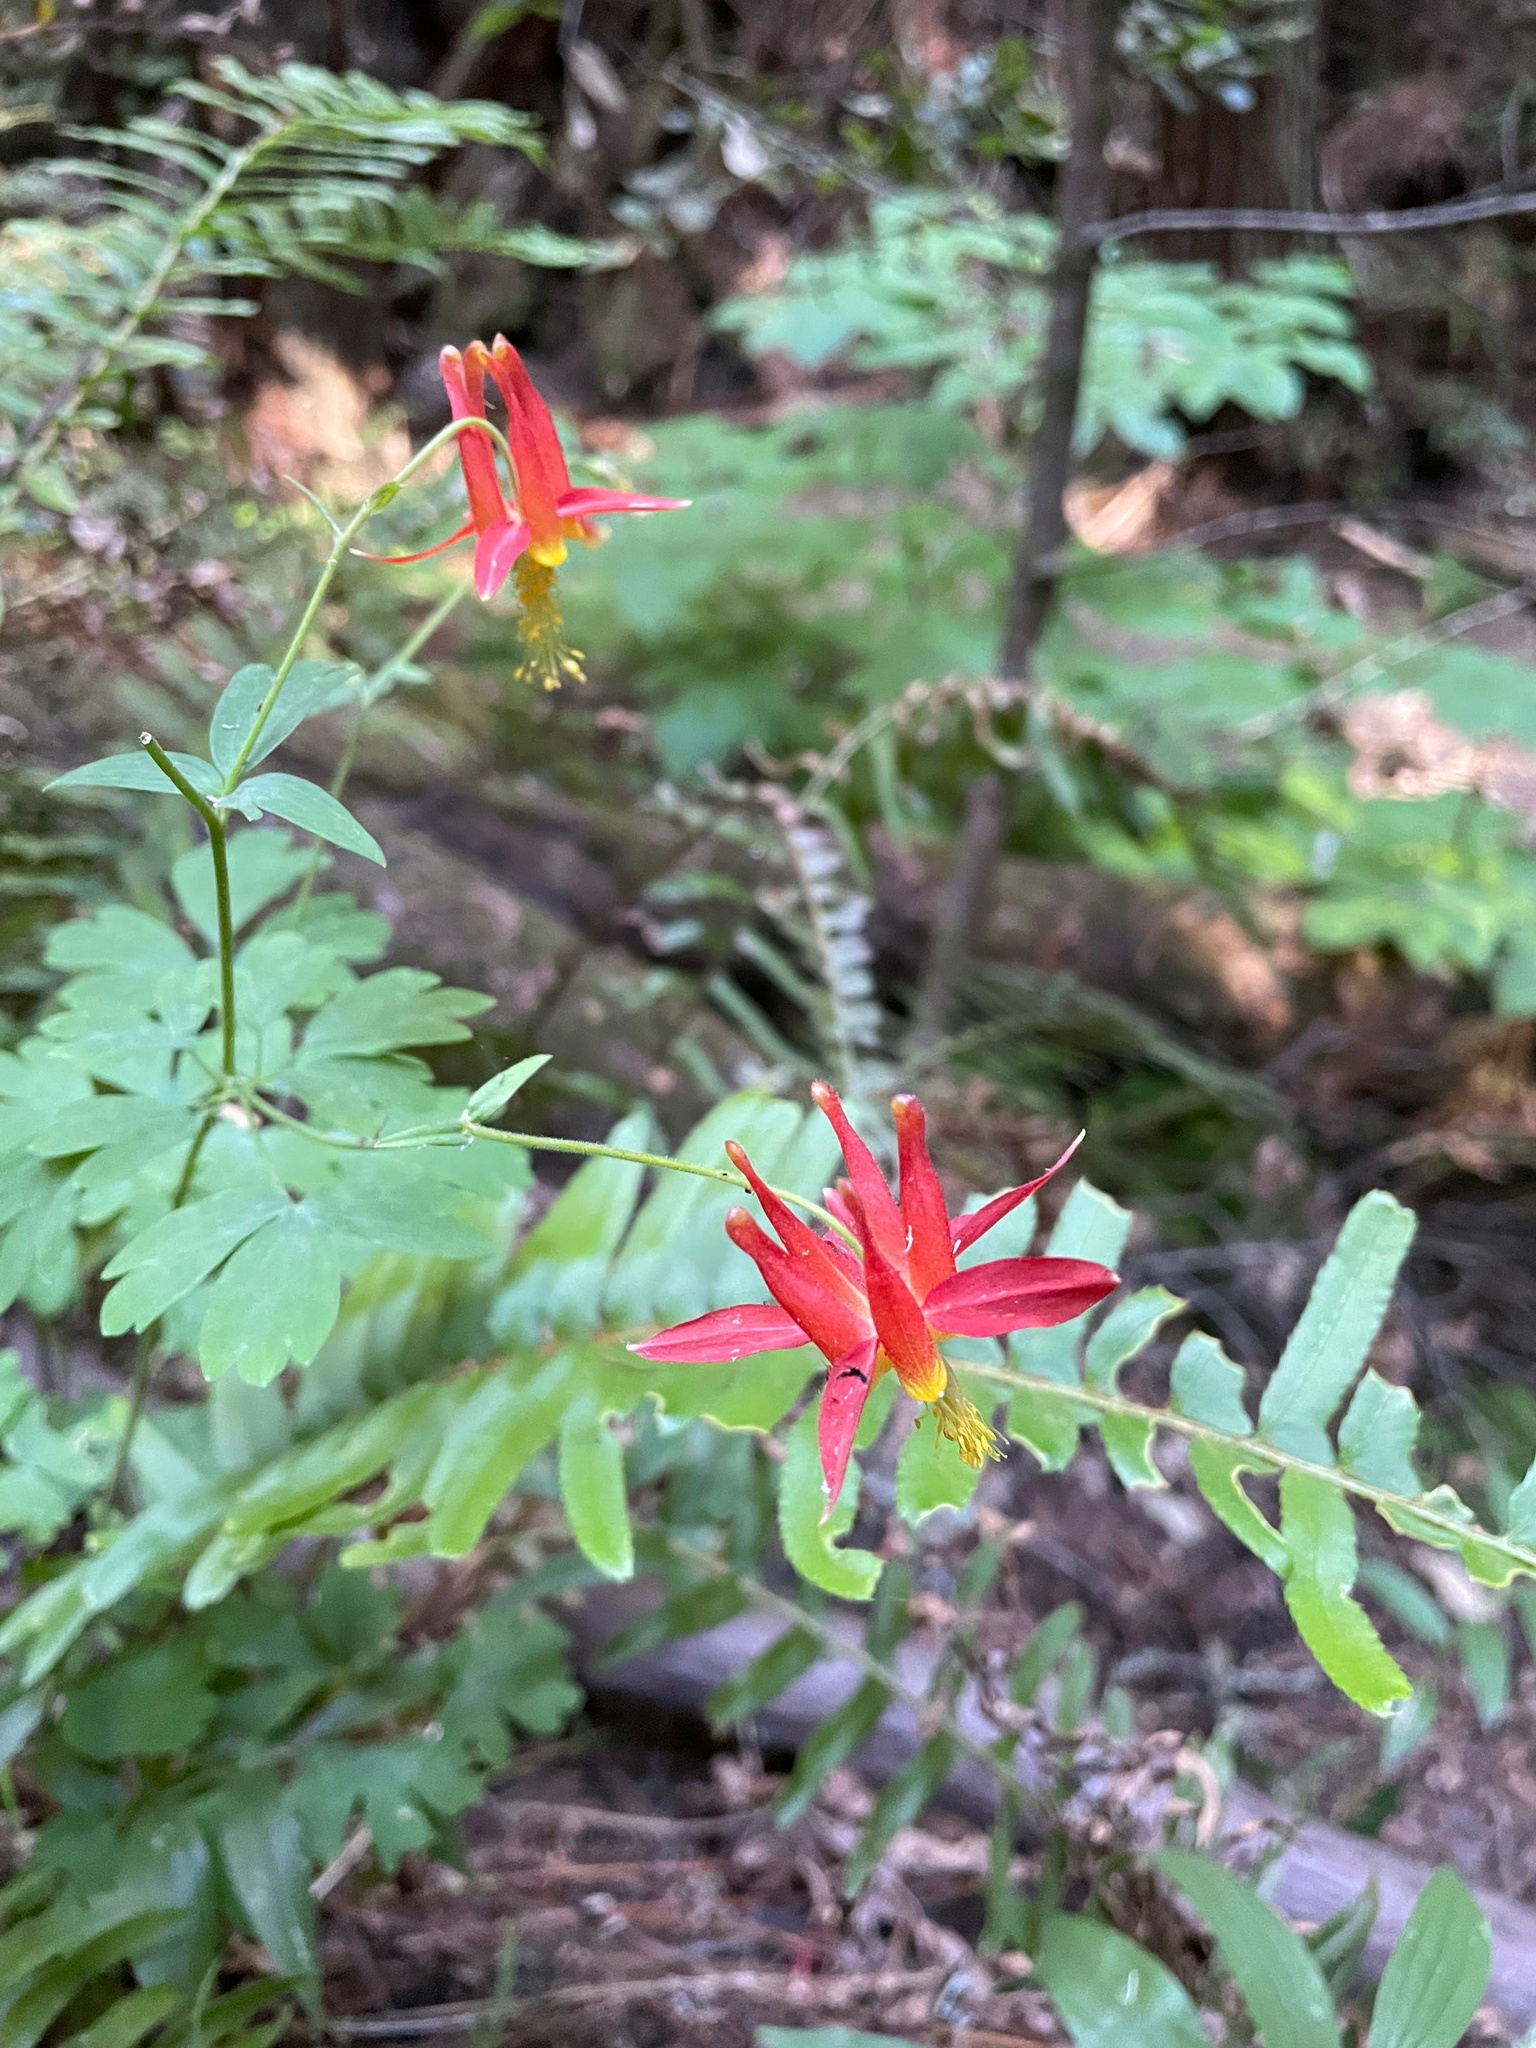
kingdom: Plantae
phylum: Tracheophyta
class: Magnoliopsida
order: Ranunculales
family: Ranunculaceae
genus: Aquilegia
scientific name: Aquilegia formosa
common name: Sitka columbine
